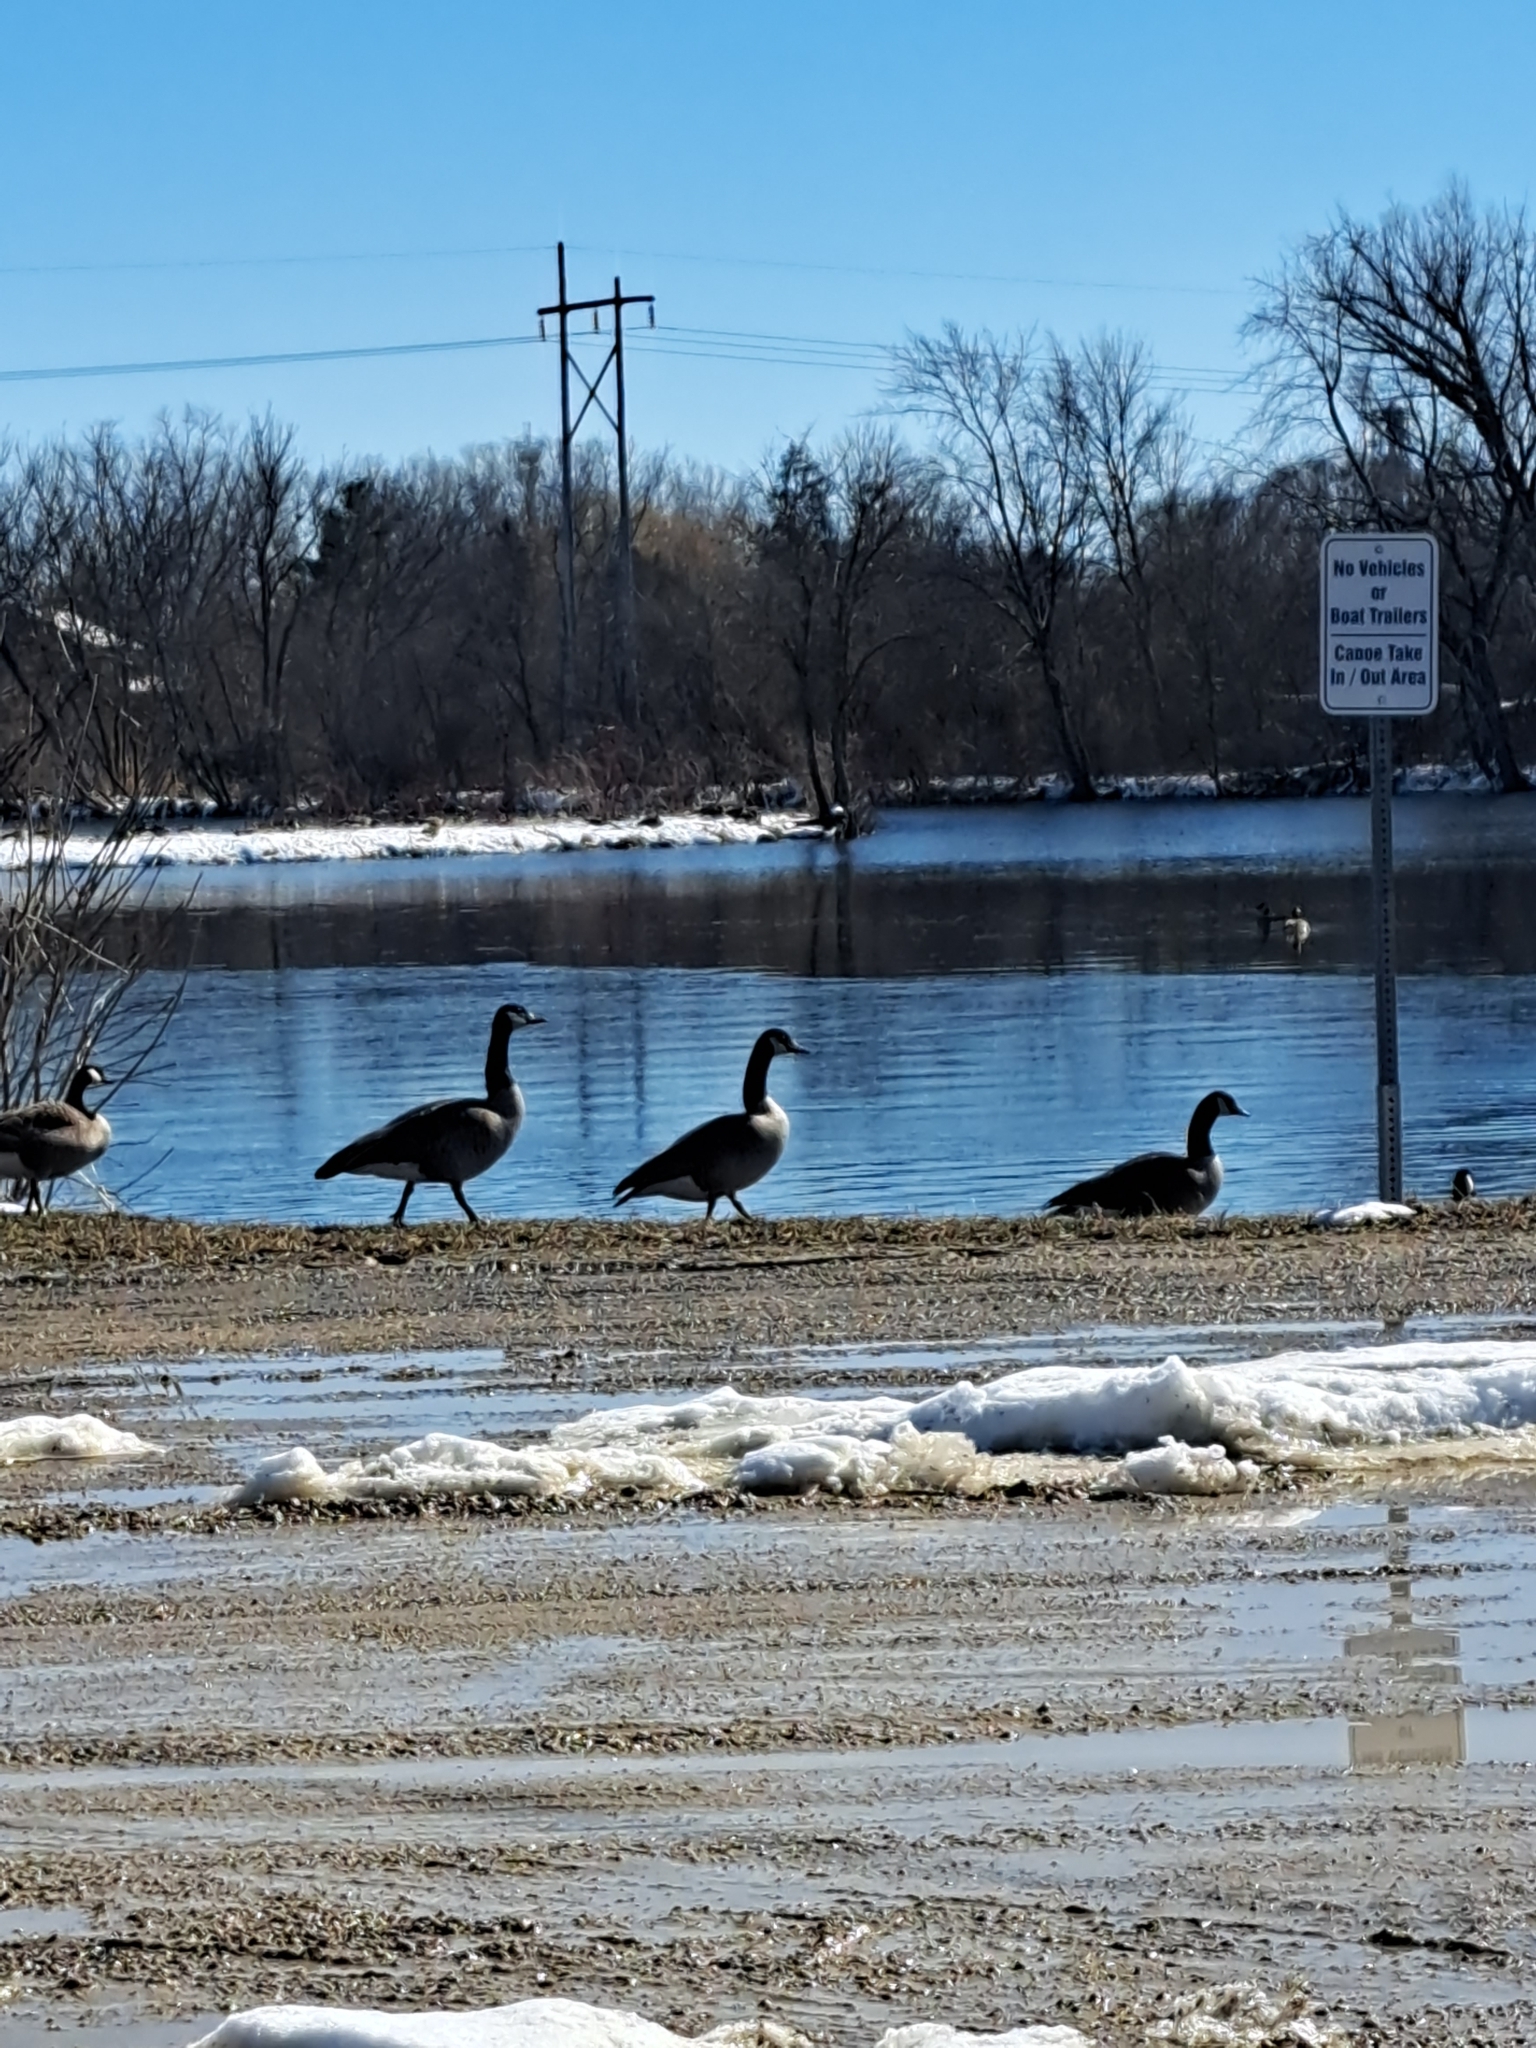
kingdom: Animalia
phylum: Chordata
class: Aves
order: Anseriformes
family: Anatidae
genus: Branta
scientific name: Branta canadensis
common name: Canada goose
